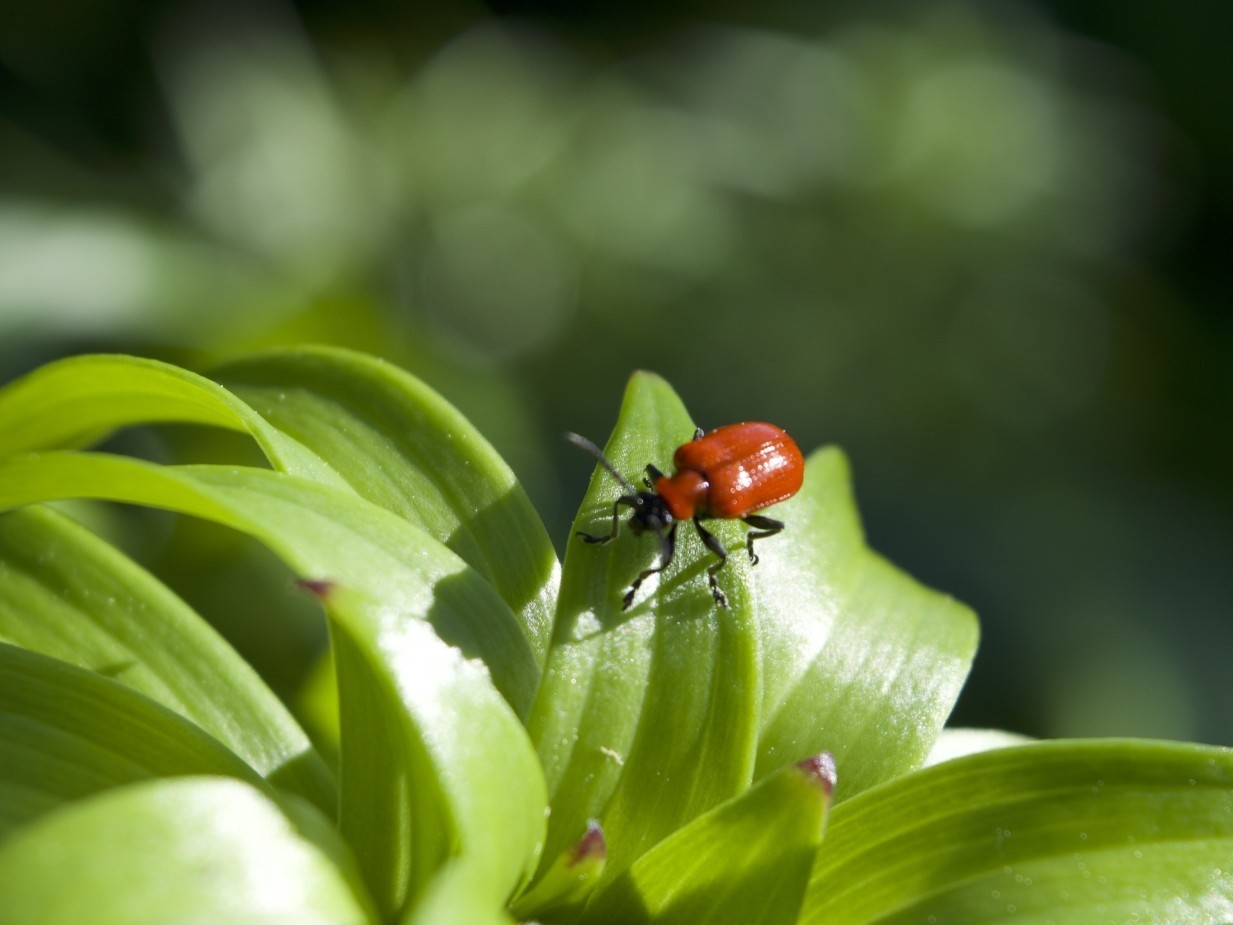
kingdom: Animalia
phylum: Arthropoda
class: Insecta
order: Coleoptera
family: Chrysomelidae
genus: Lilioceris
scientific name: Lilioceris lilii
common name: Lily beetle
